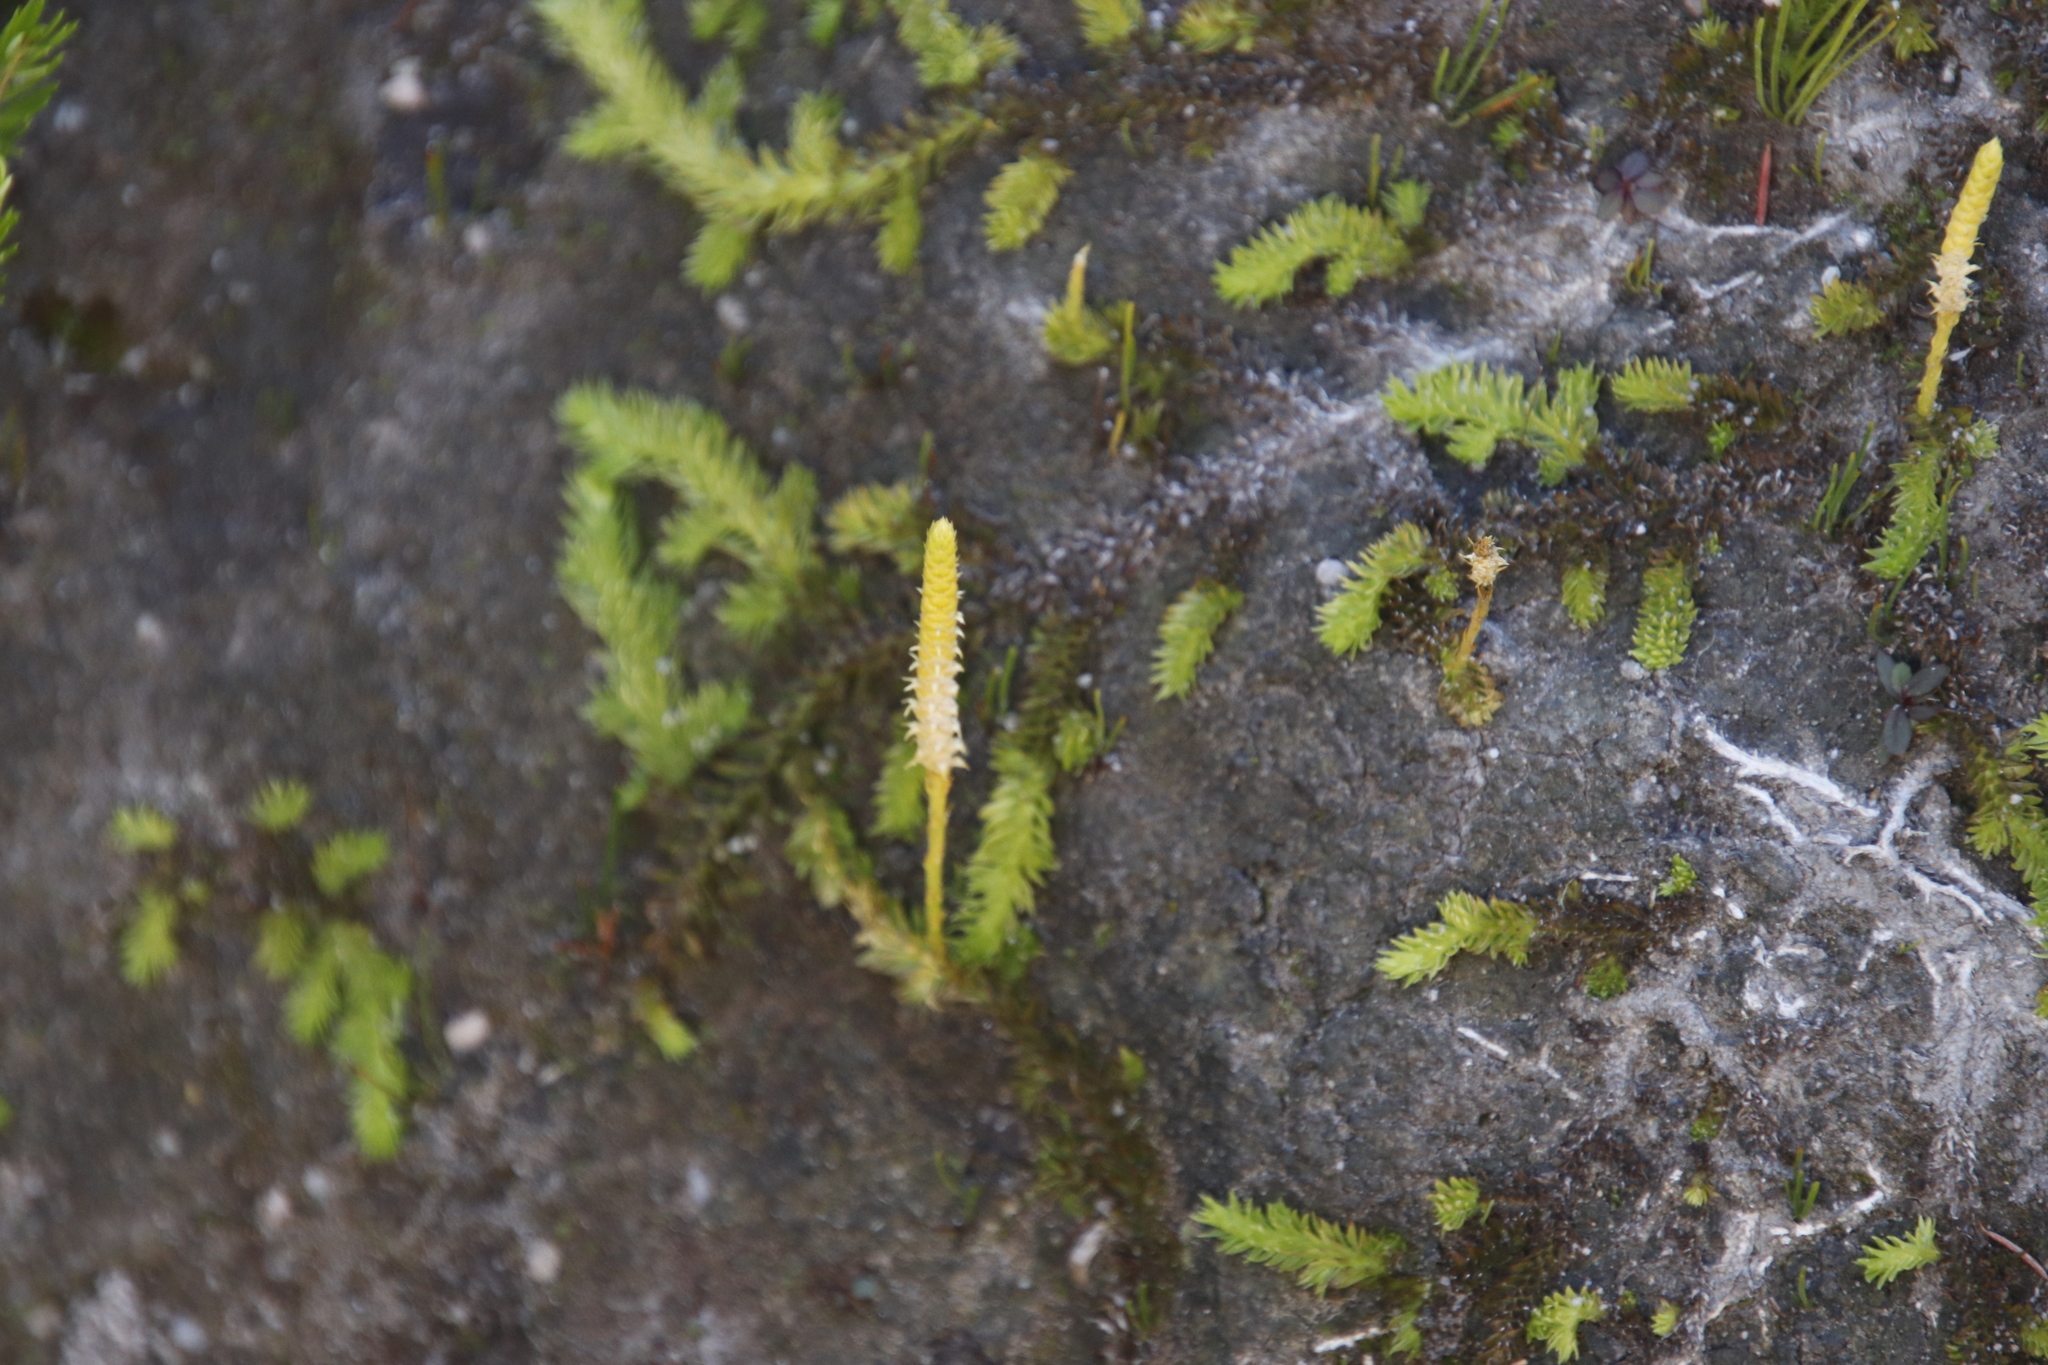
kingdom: Plantae
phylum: Tracheophyta
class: Lycopodiopsida
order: Lycopodiales
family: Lycopodiaceae
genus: Pseudolycopodiella
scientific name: Pseudolycopodiella caroliniana
